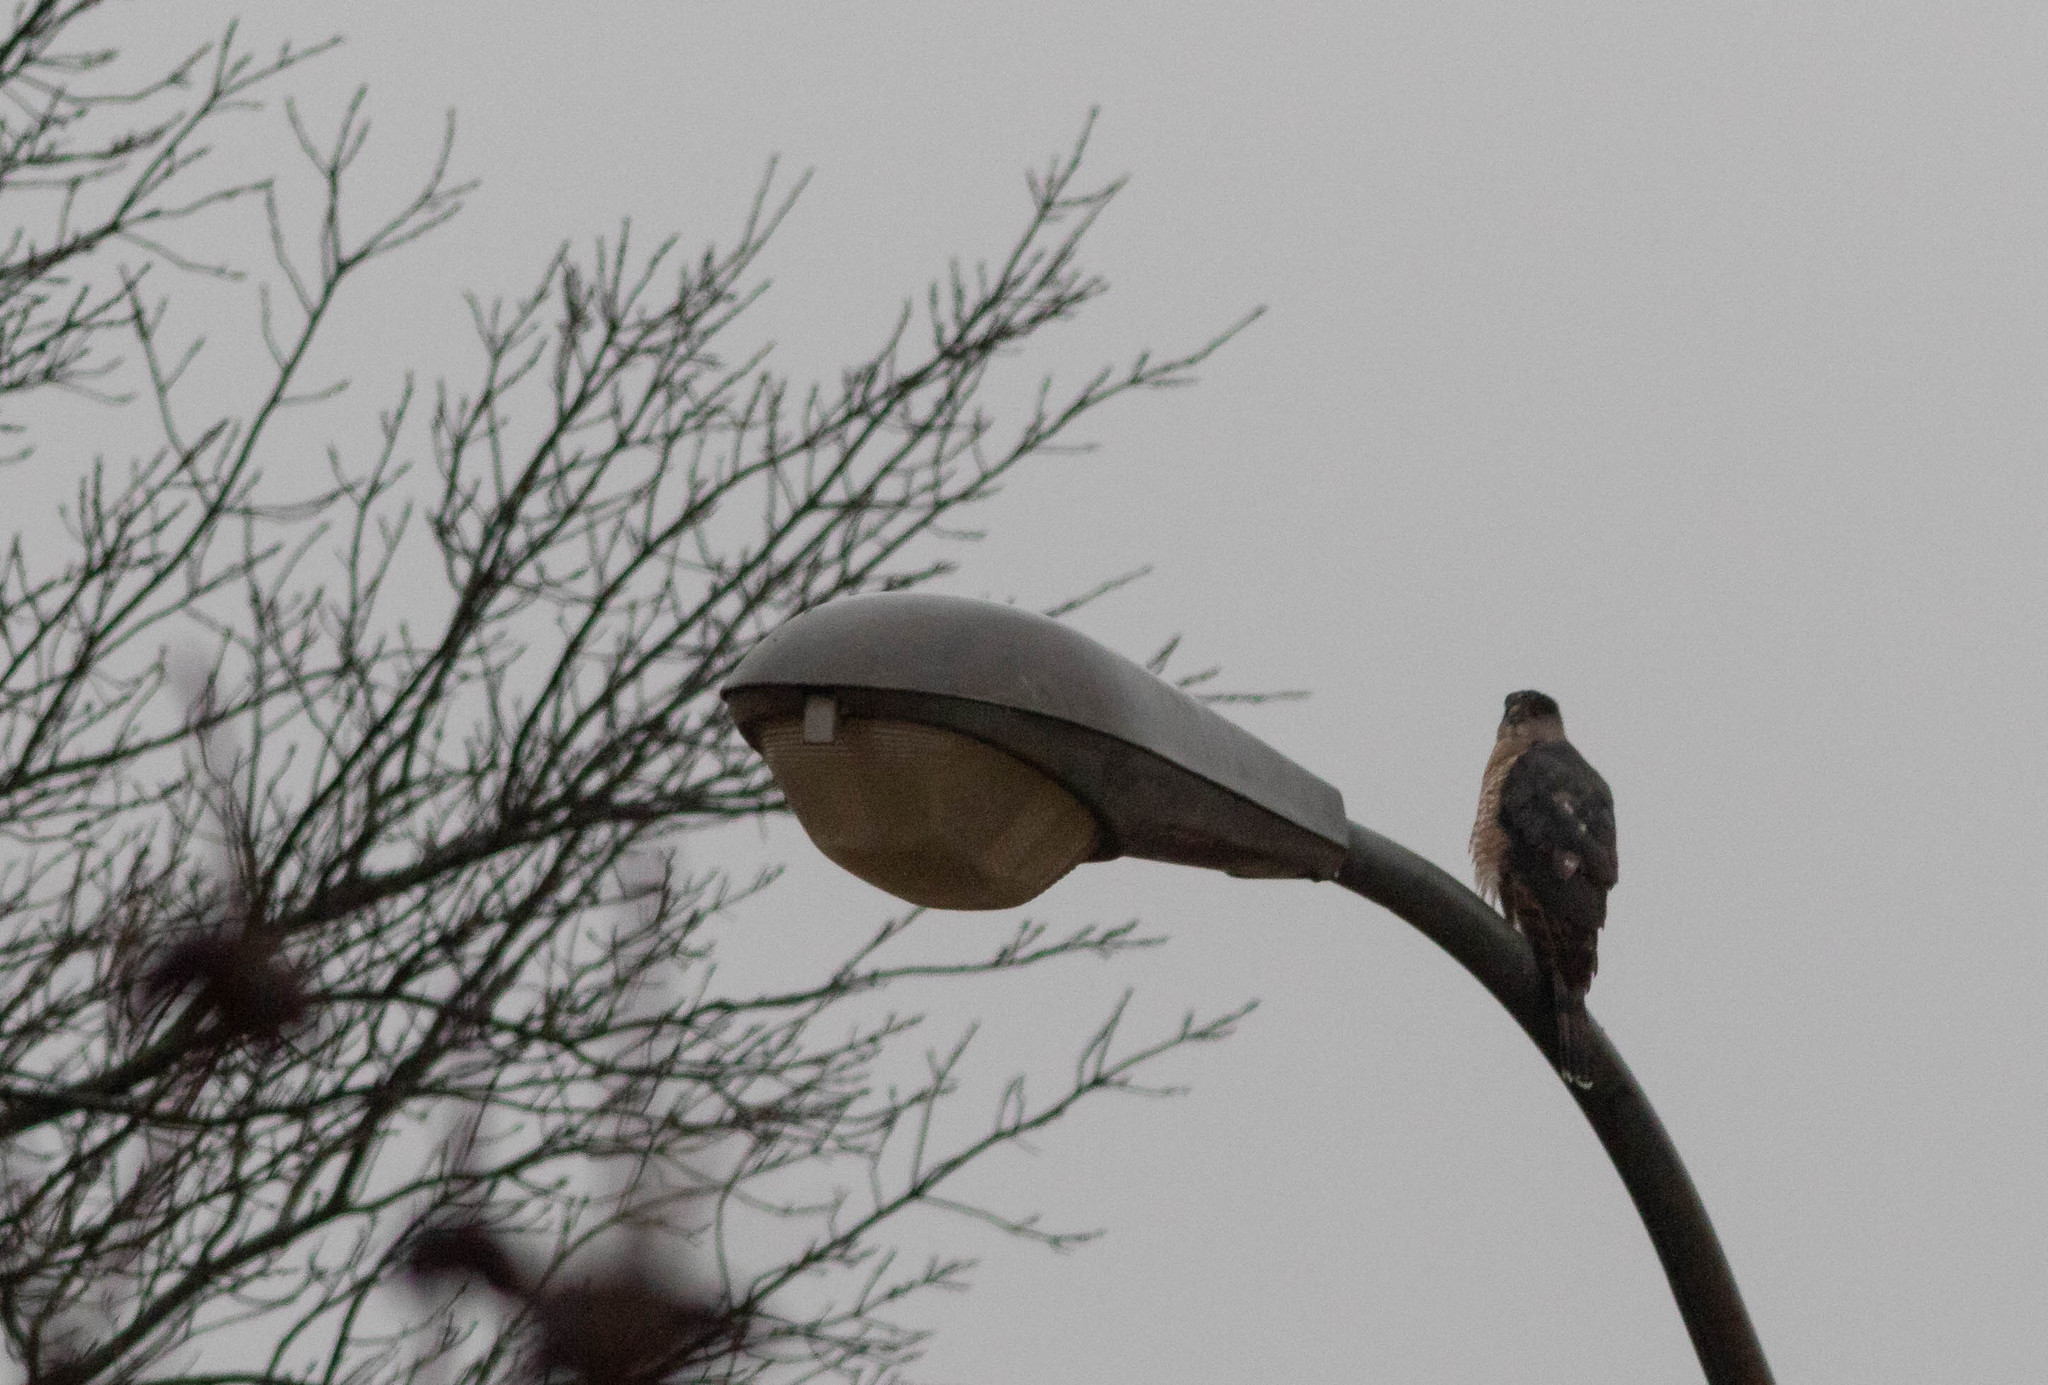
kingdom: Animalia
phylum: Chordata
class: Aves
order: Accipitriformes
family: Accipitridae
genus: Accipiter
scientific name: Accipiter cooperii
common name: Cooper's hawk
